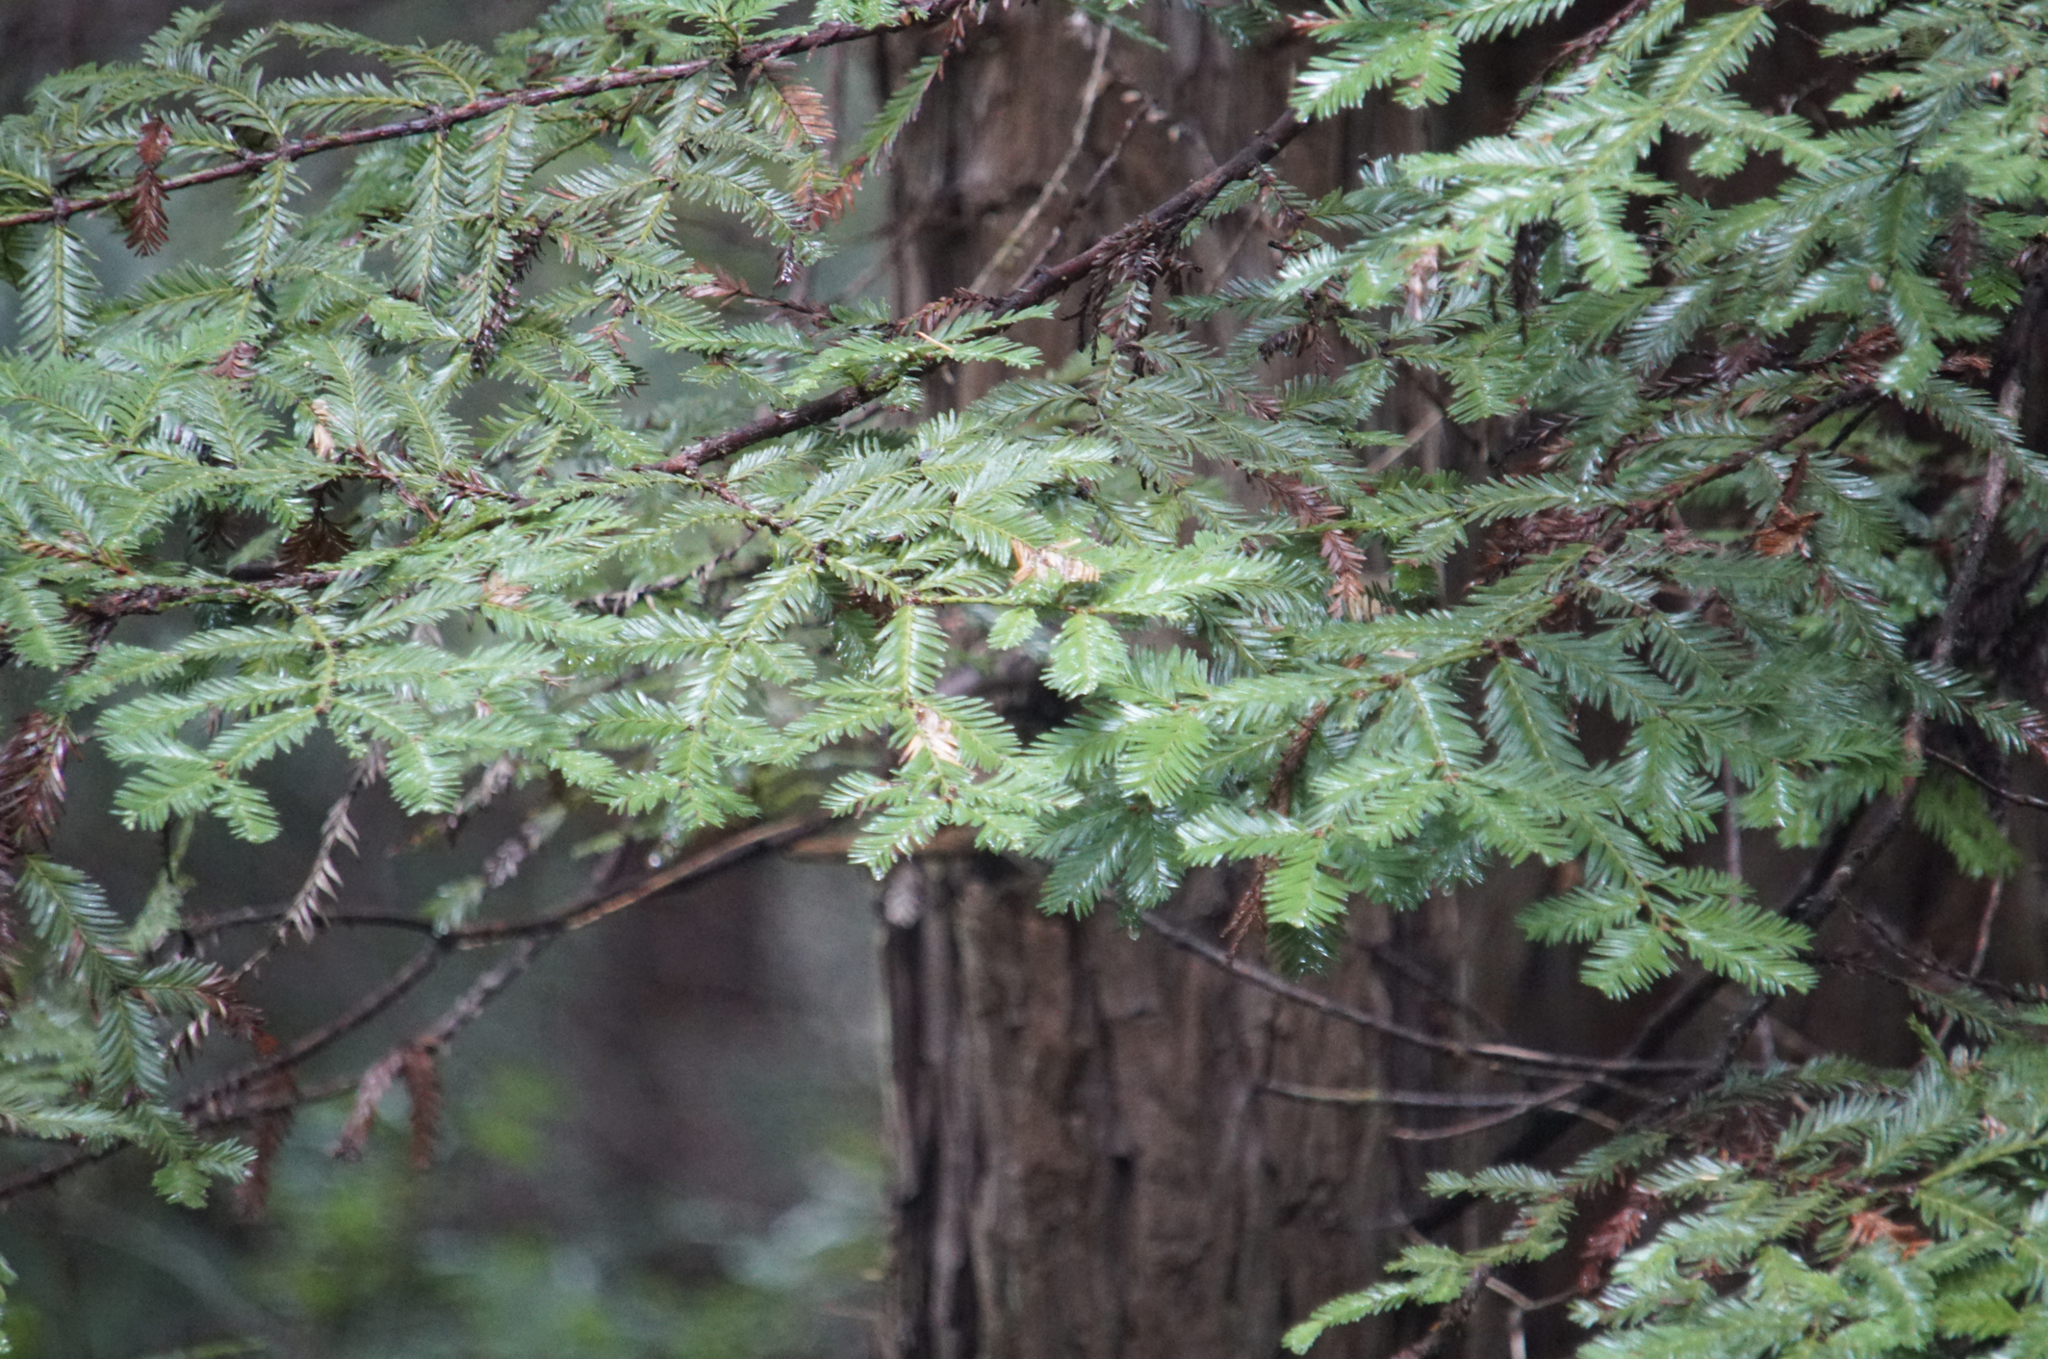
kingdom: Plantae
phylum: Tracheophyta
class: Pinopsida
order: Pinales
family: Cupressaceae
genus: Sequoia
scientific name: Sequoia sempervirens
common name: Coast redwood
